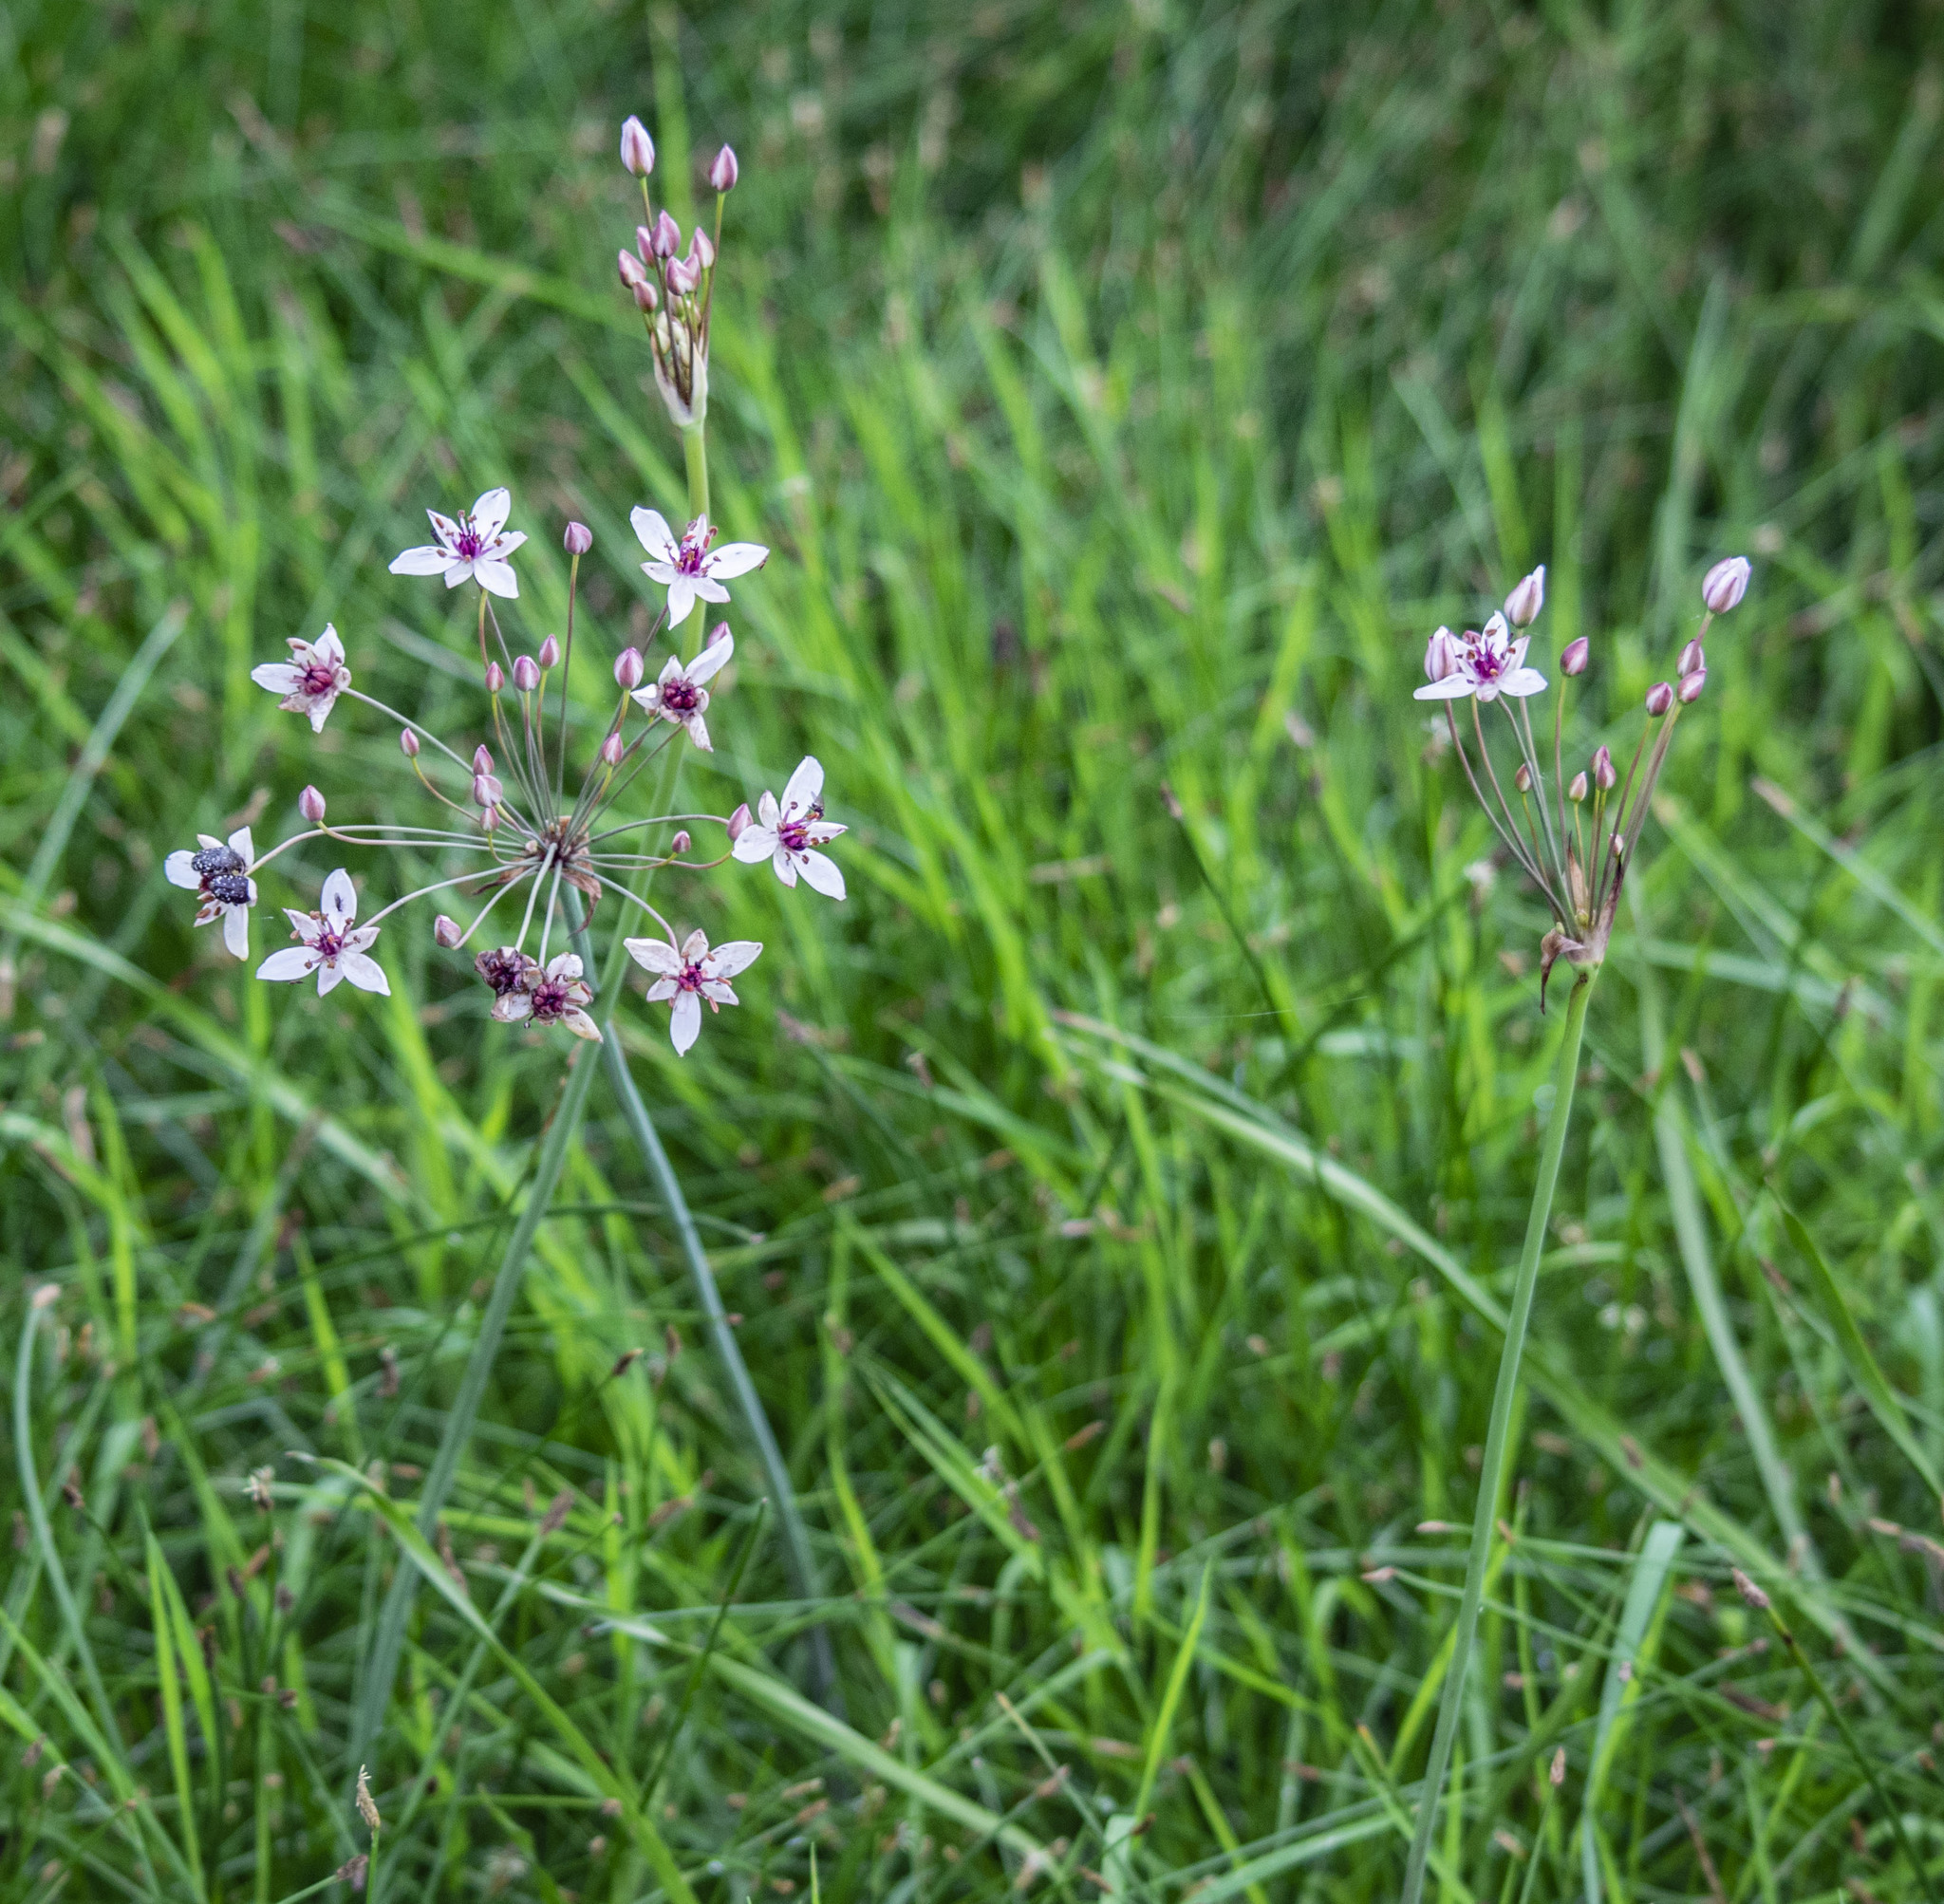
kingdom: Plantae
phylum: Tracheophyta
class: Liliopsida
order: Alismatales
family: Butomaceae
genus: Butomus
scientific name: Butomus umbellatus
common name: Flowering-rush
